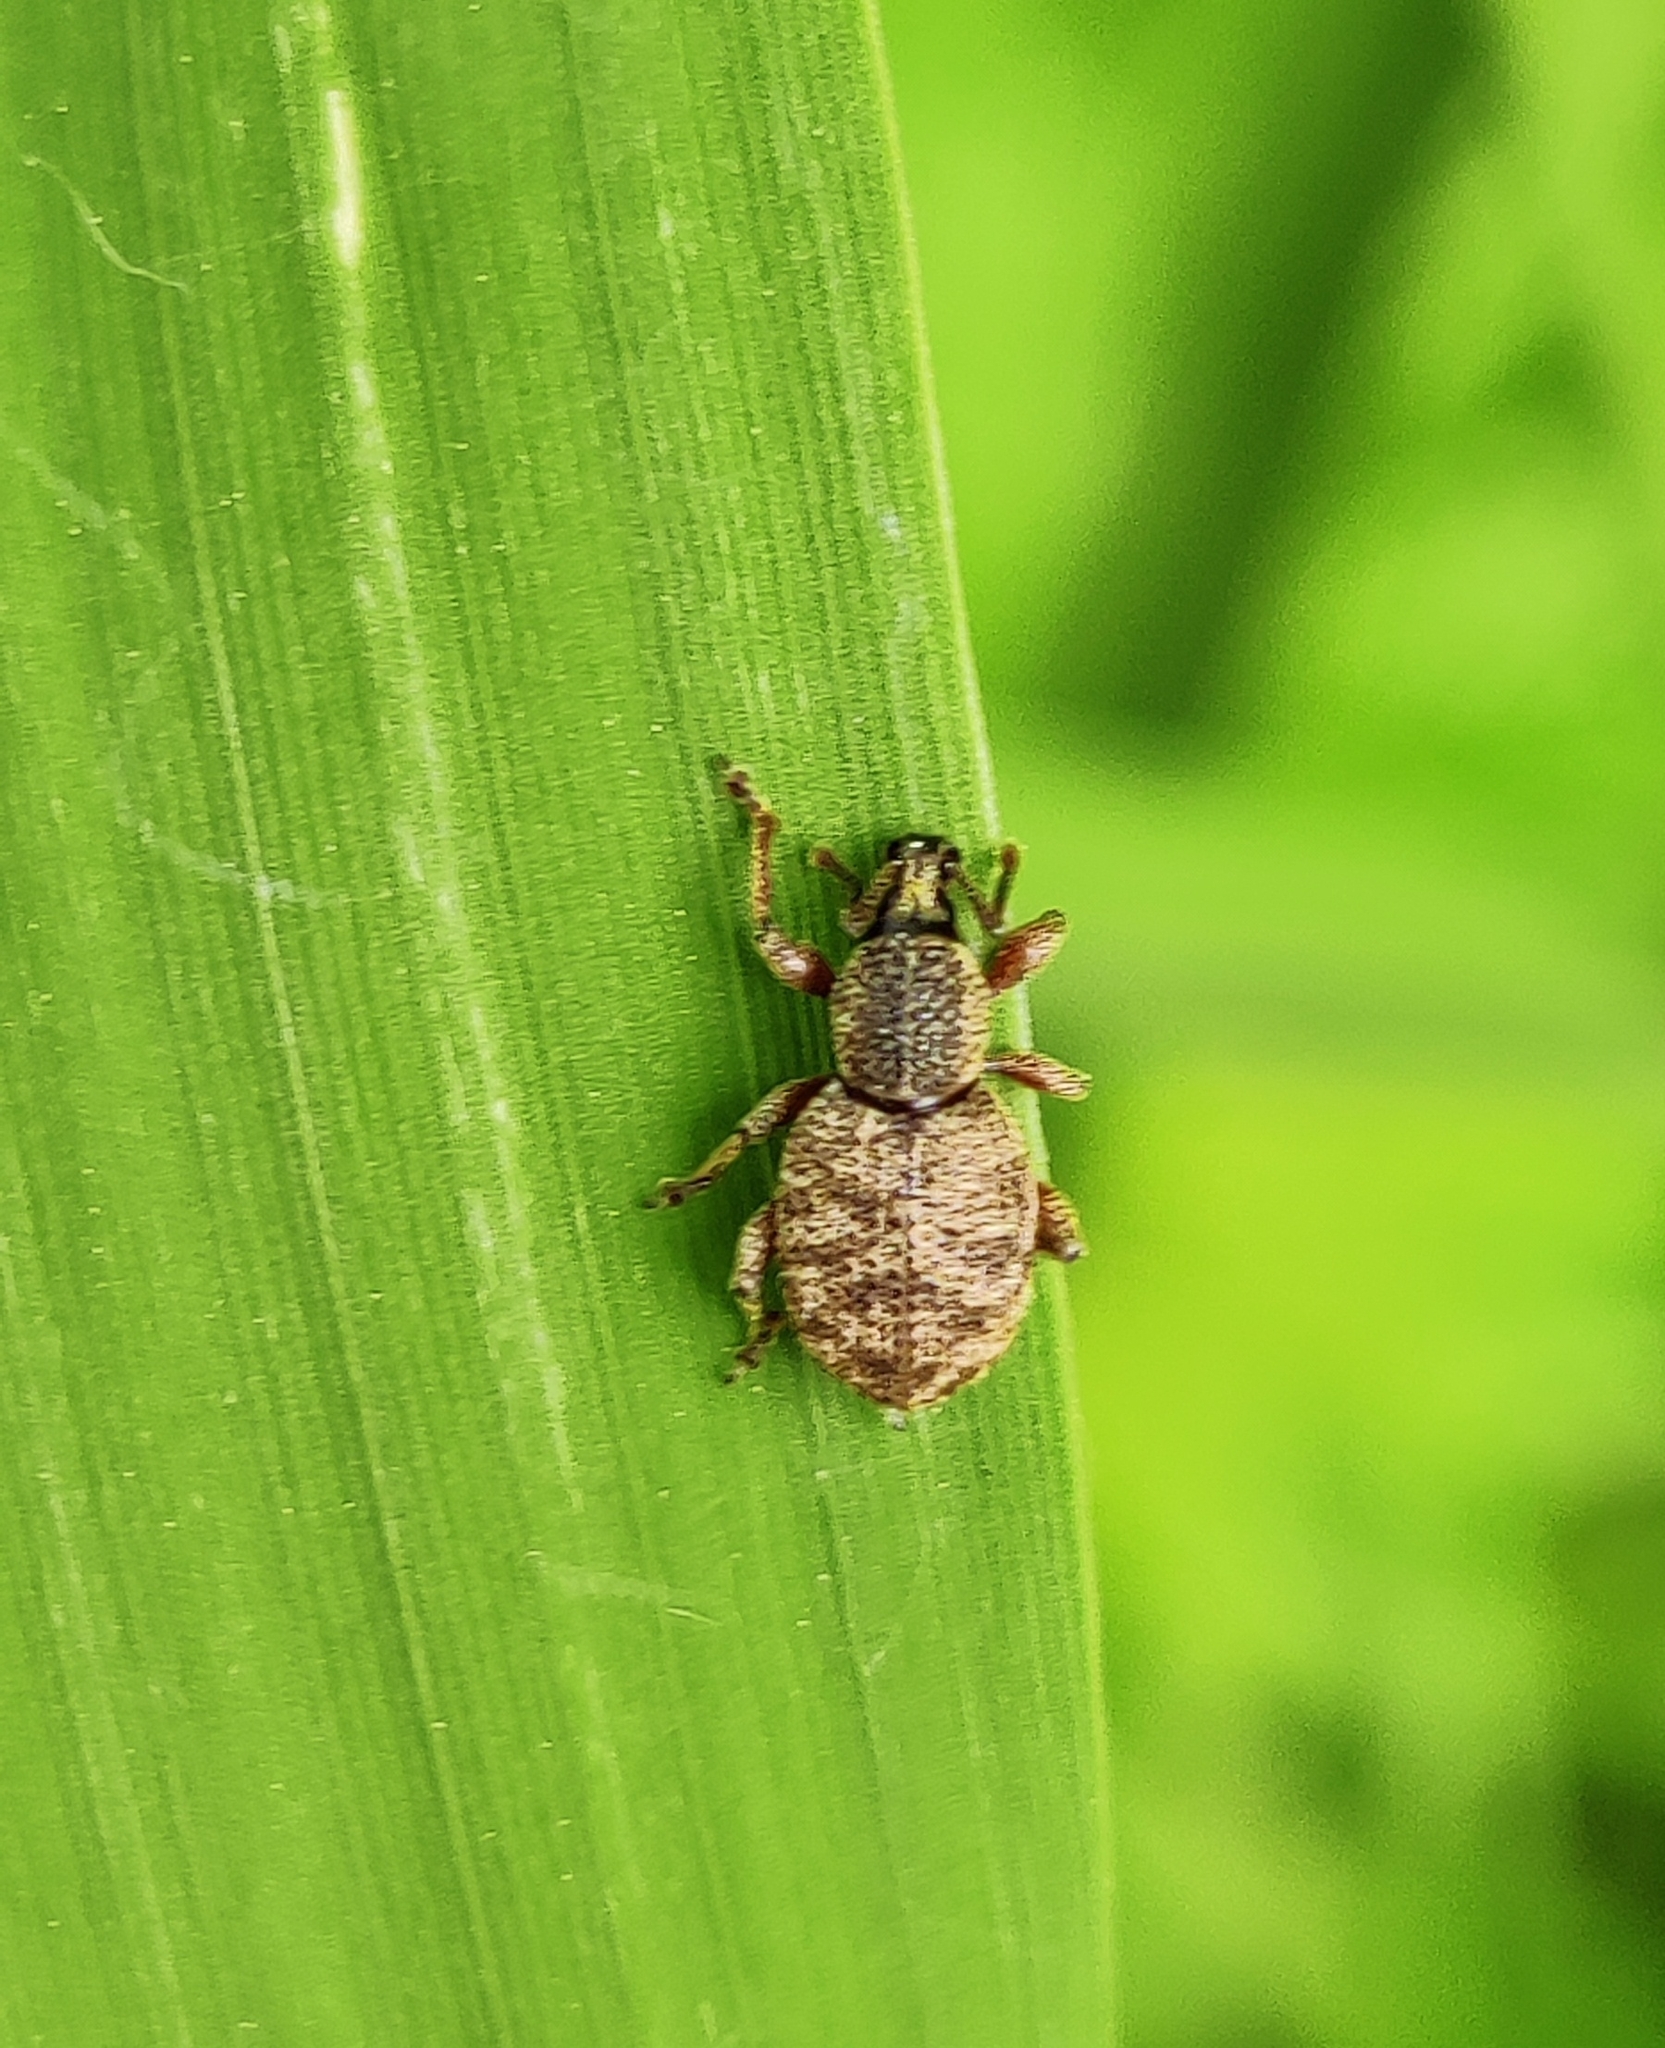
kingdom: Animalia
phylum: Arthropoda
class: Insecta
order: Coleoptera
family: Curculionidae
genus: Otiorhynchus
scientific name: Otiorhynchus singularis
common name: Clay-coloured weevil
